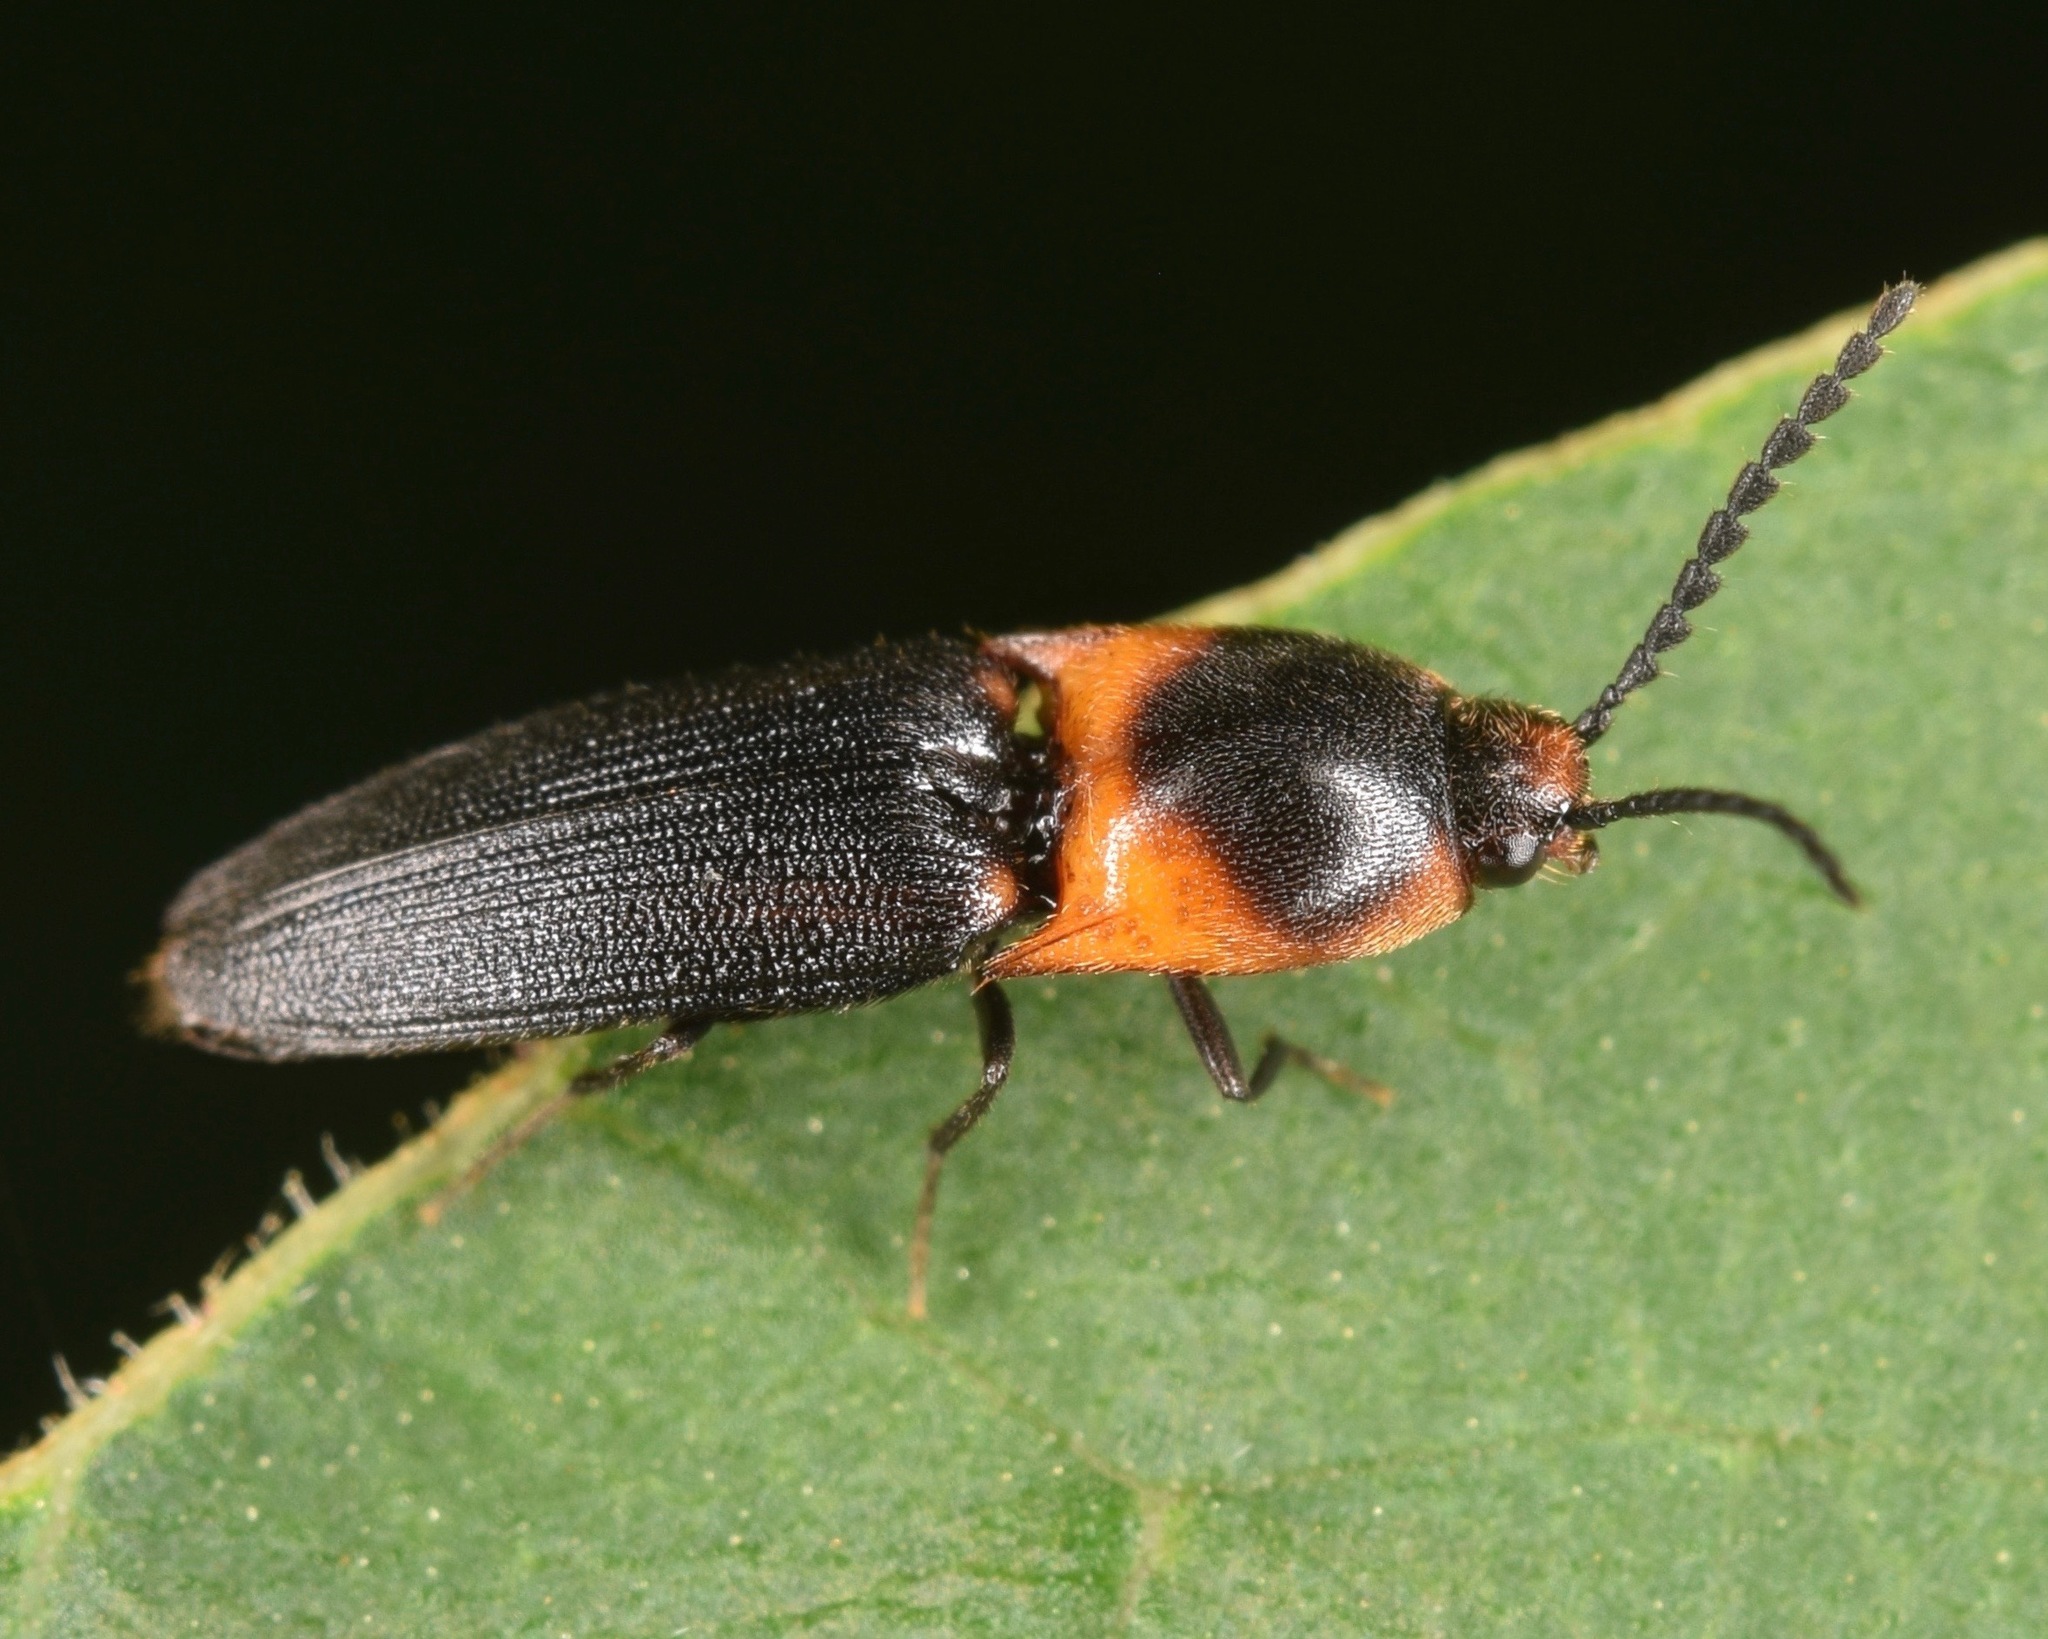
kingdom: Animalia
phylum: Arthropoda
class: Insecta
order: Coleoptera
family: Elateridae
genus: Anchastus
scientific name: Anchastus
